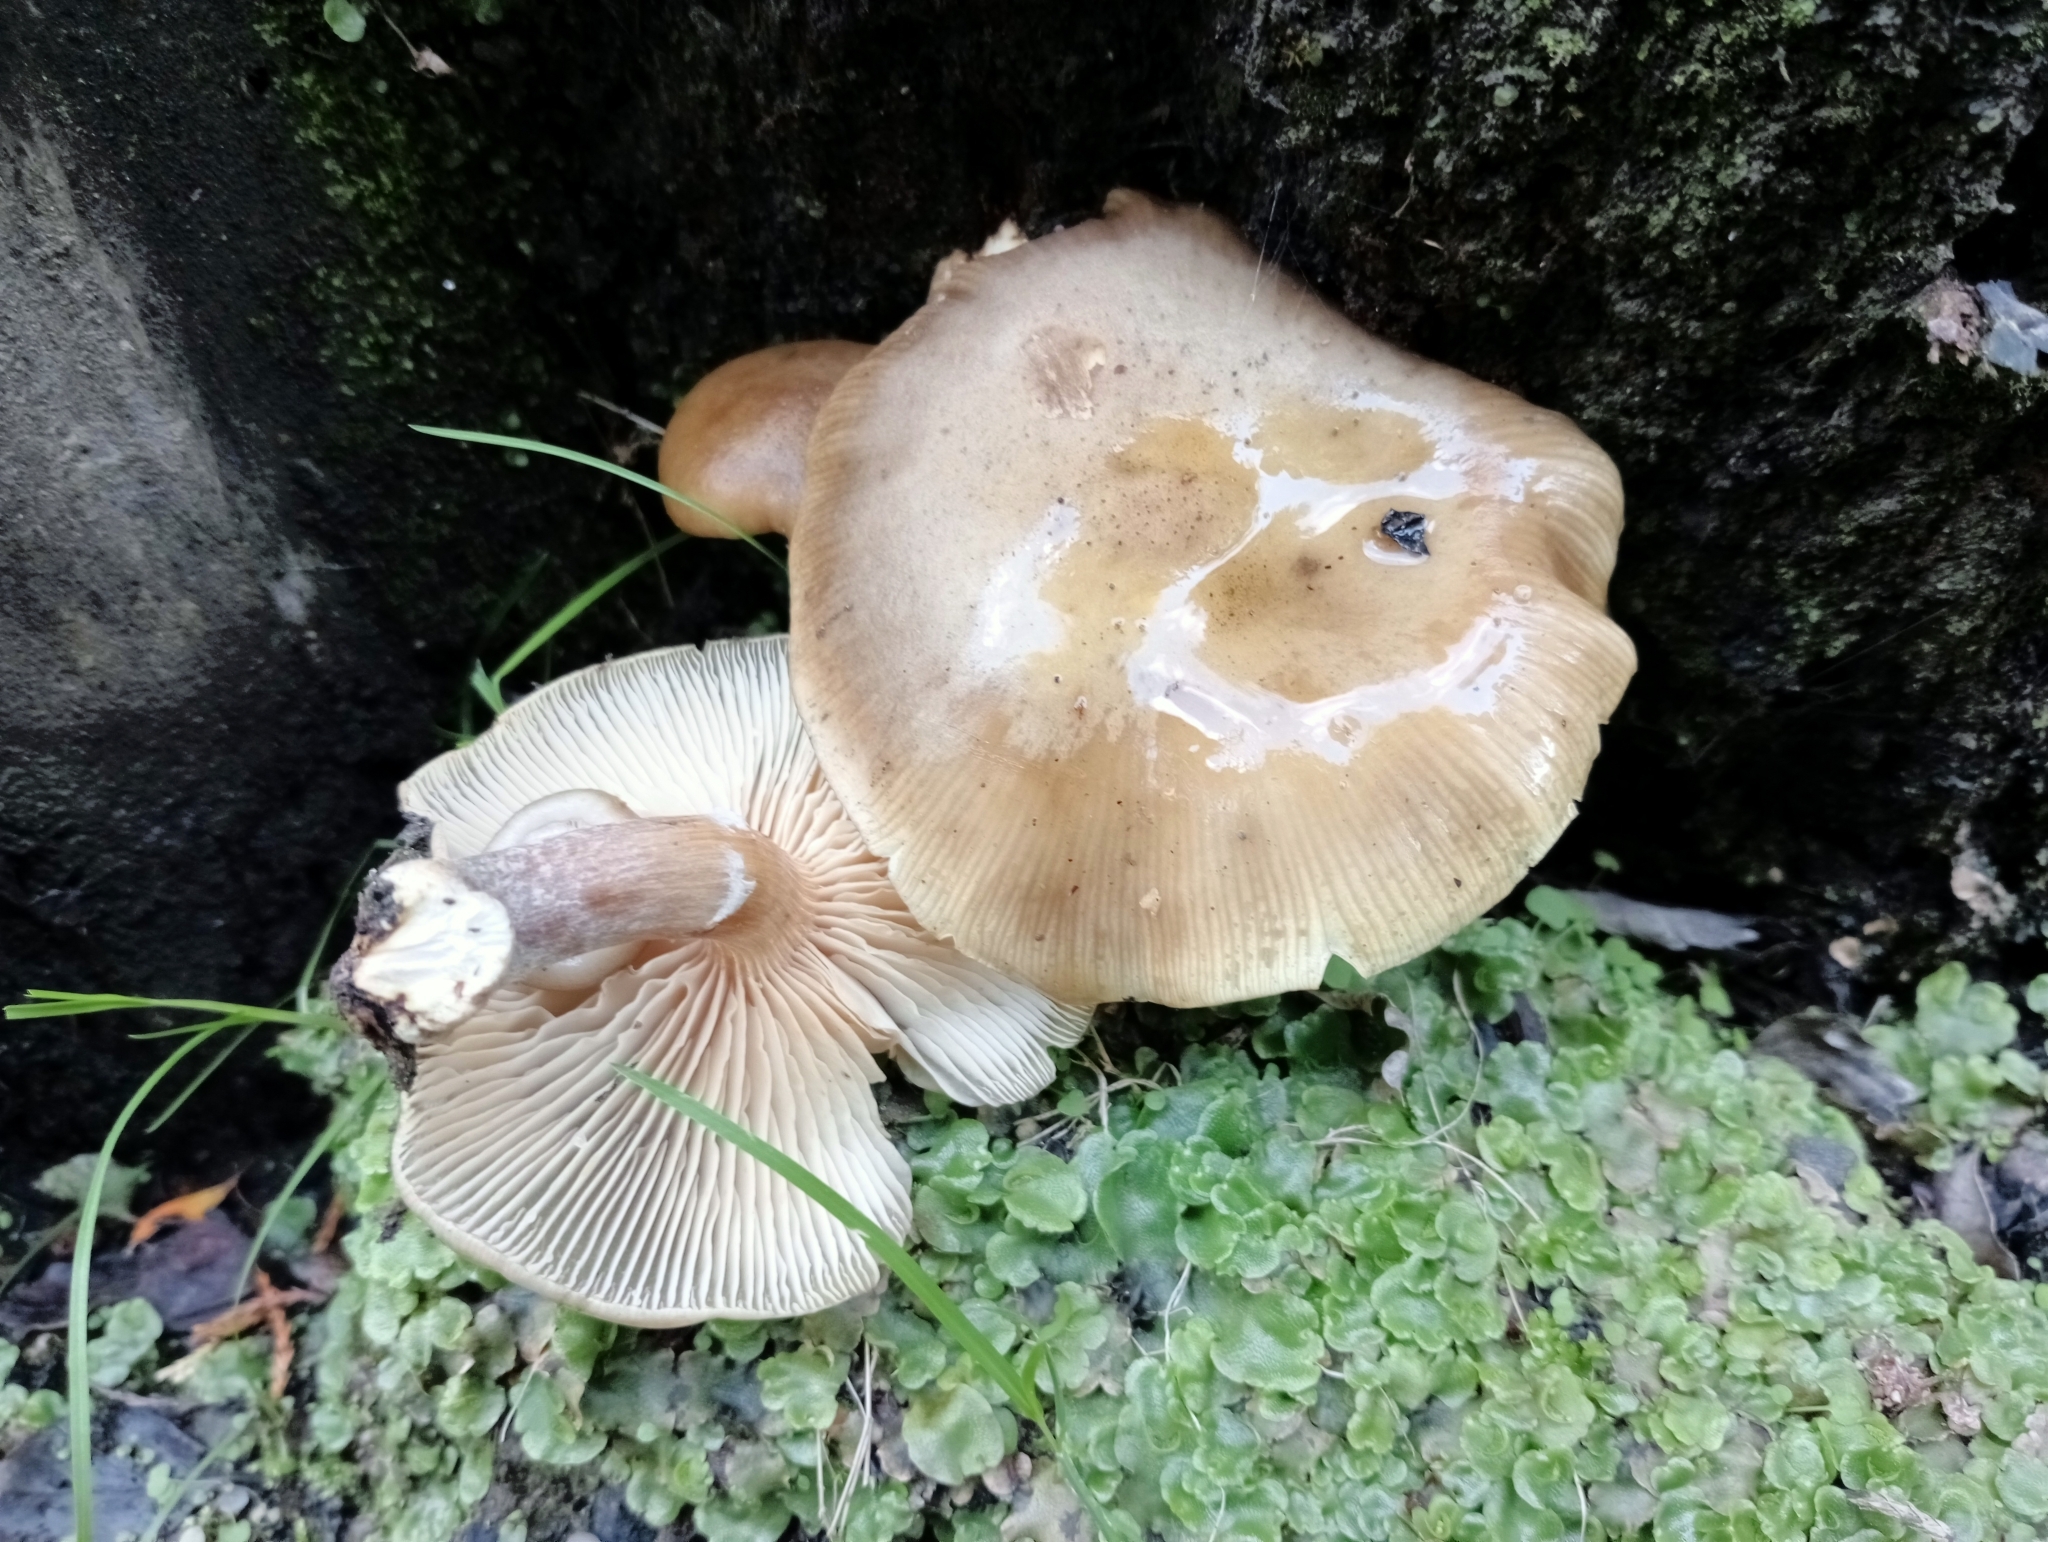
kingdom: Fungi
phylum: Basidiomycota
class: Agaricomycetes
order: Agaricales
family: Physalacriaceae
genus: Armillaria
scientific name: Armillaria novae-zelandiae
